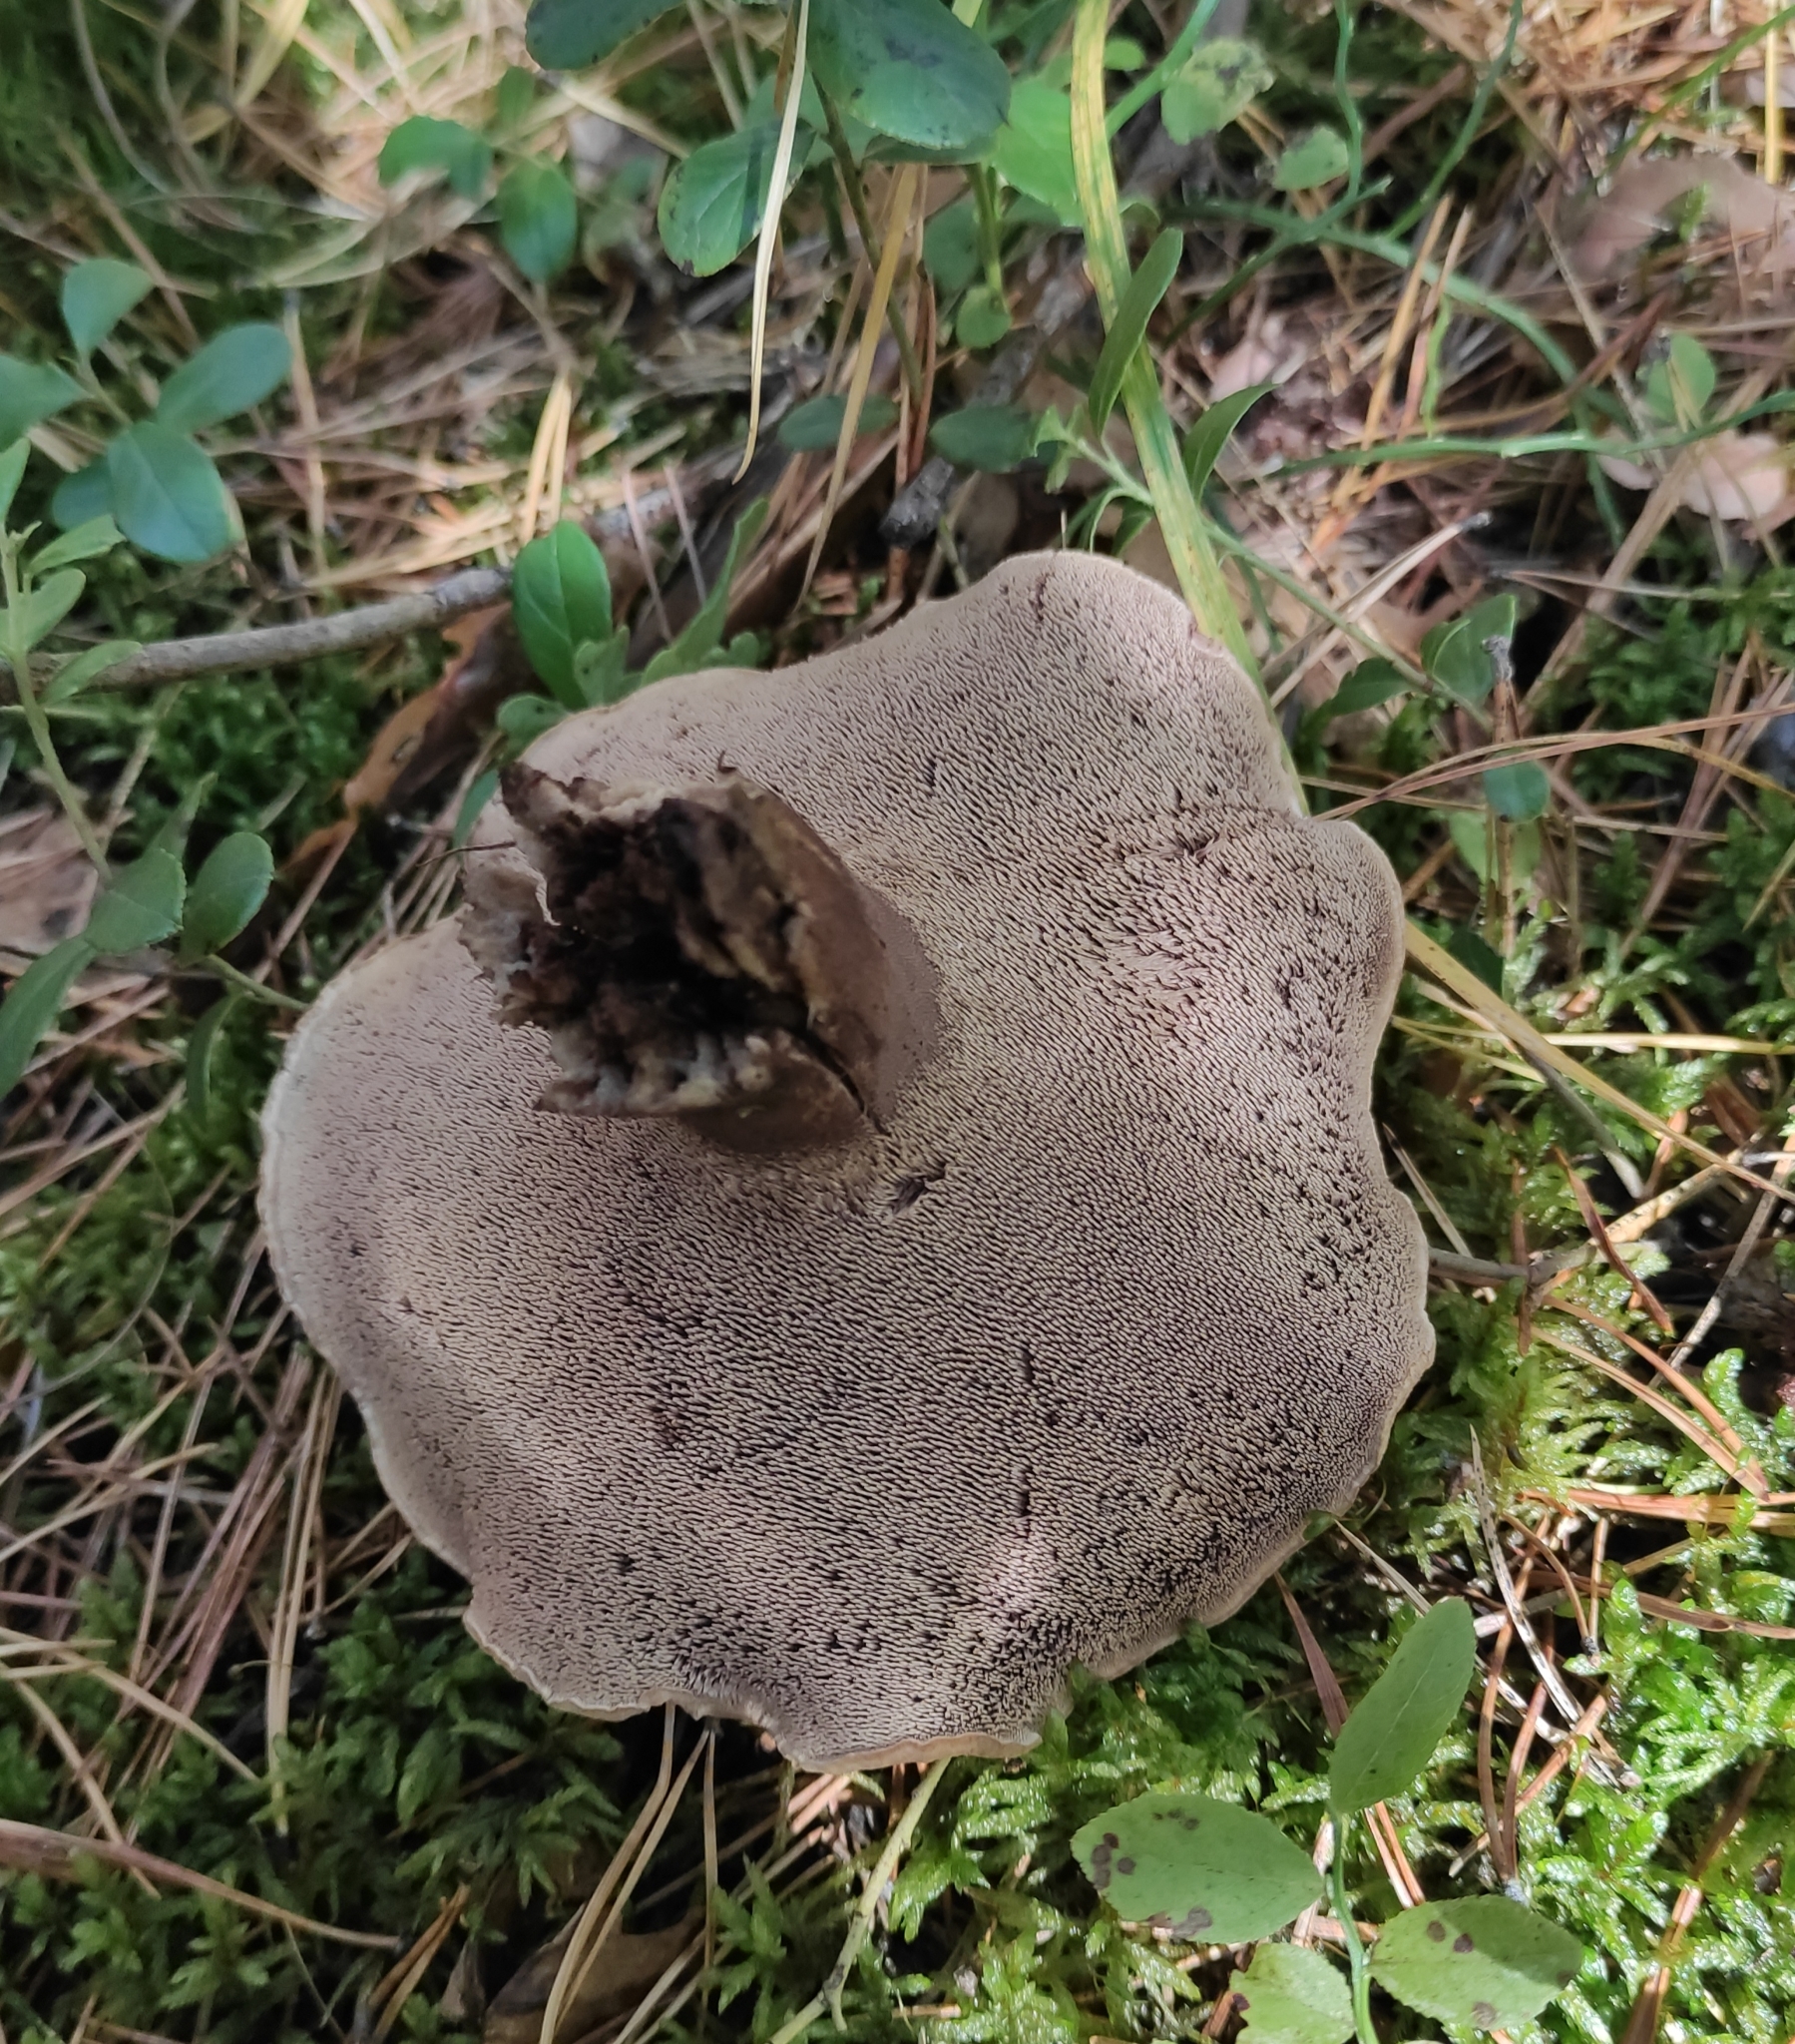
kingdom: Fungi
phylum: Basidiomycota
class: Agaricomycetes
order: Thelephorales
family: Bankeraceae
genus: Sarcodon
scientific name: Sarcodon squamosus
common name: Scaly tooth
